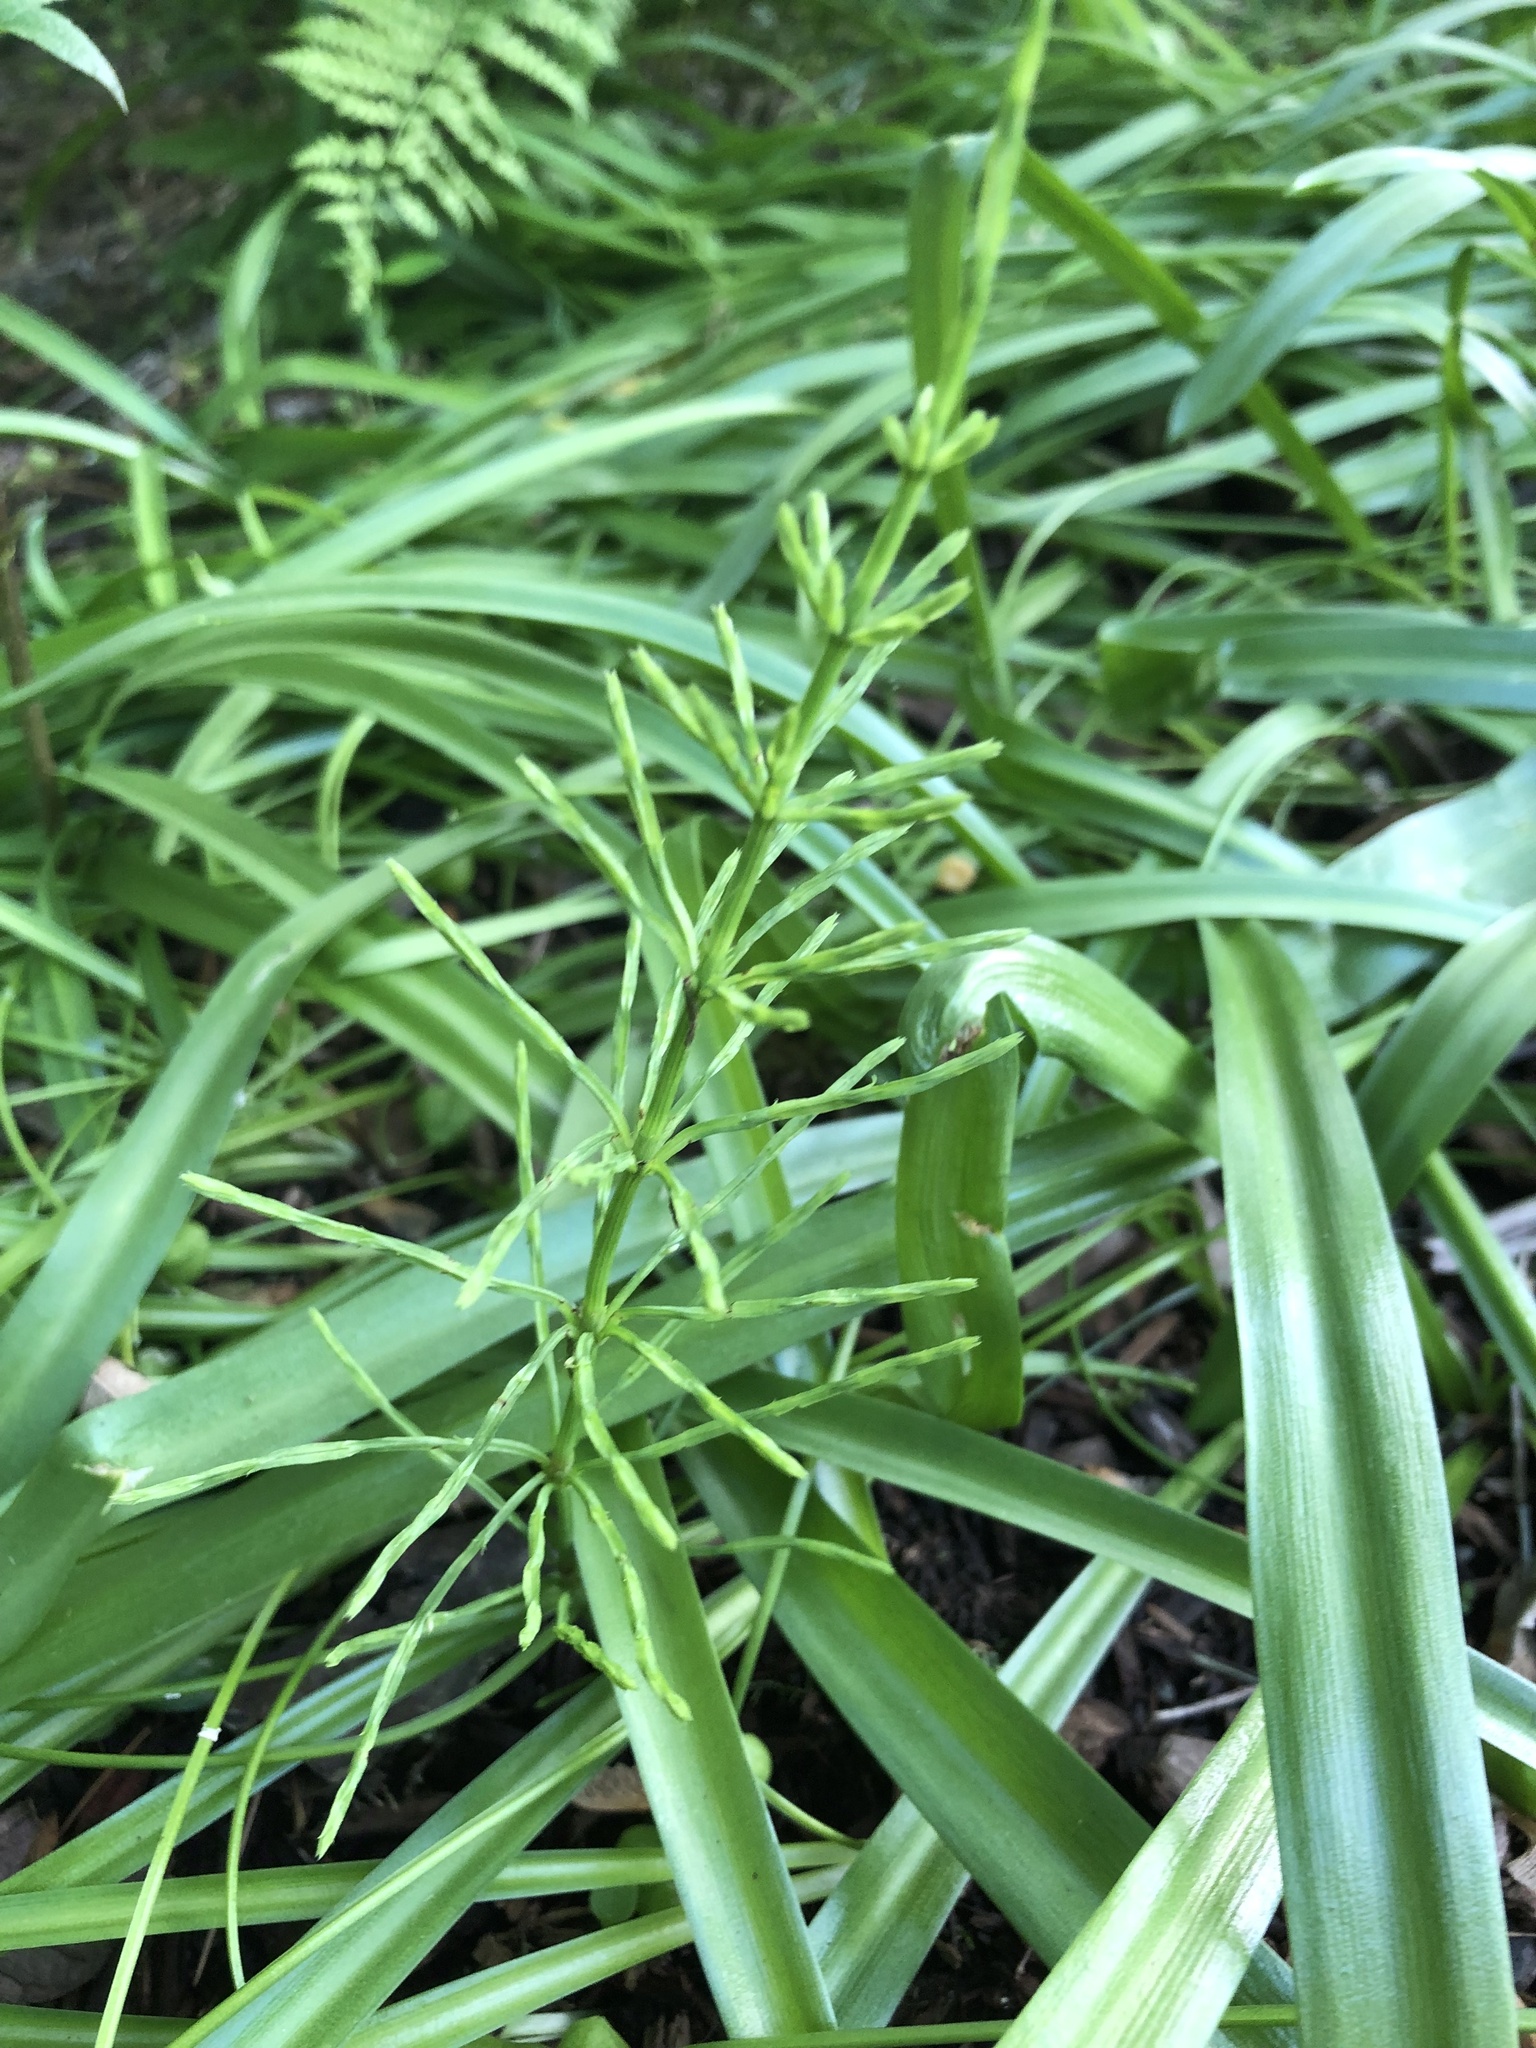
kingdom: Plantae
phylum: Tracheophyta
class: Polypodiopsida
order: Equisetales
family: Equisetaceae
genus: Equisetum
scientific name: Equisetum arvense
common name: Field horsetail
